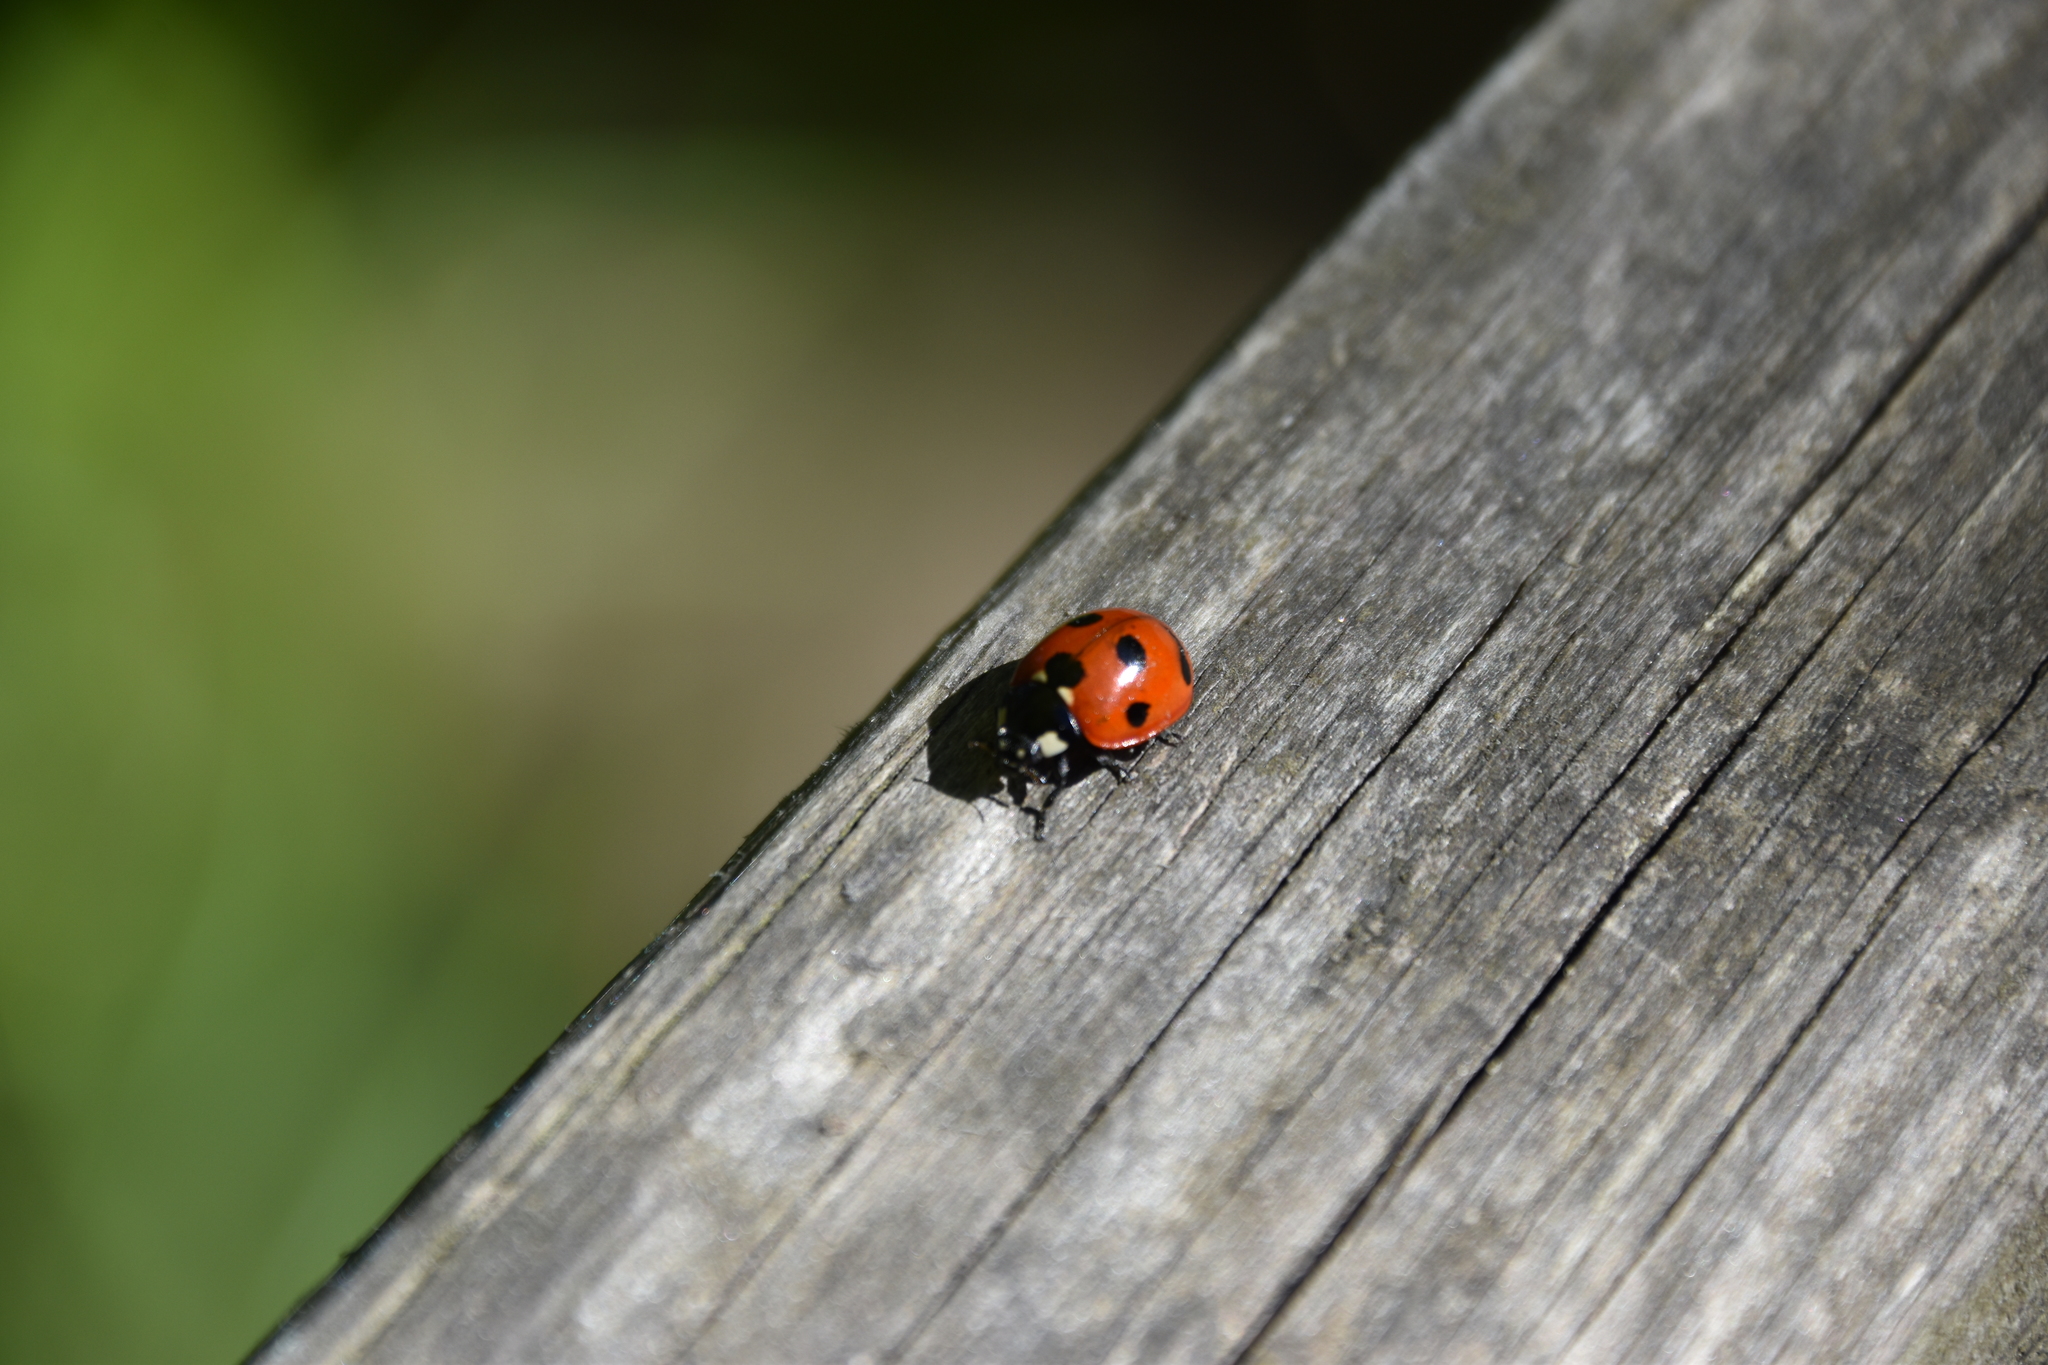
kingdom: Animalia
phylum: Arthropoda
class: Insecta
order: Coleoptera
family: Coccinellidae
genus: Coccinella
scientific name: Coccinella septempunctata
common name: Sevenspotted lady beetle
